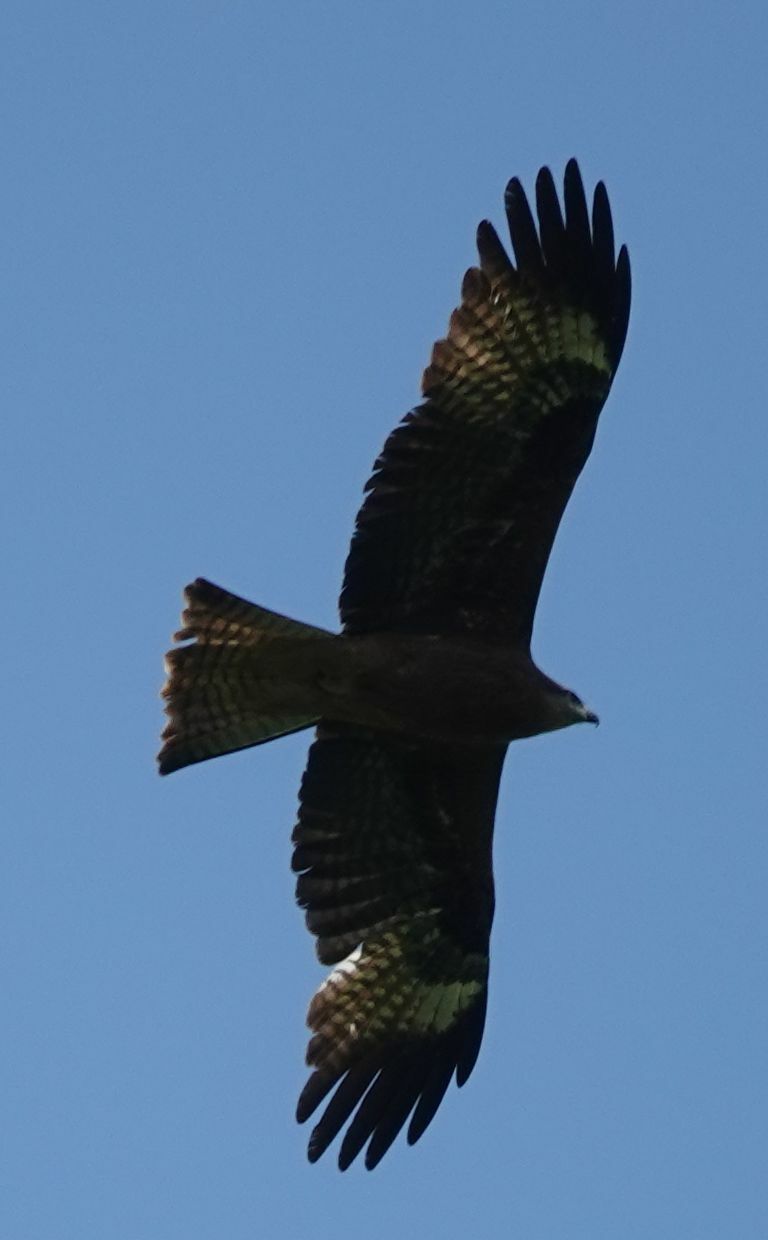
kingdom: Animalia
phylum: Chordata
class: Aves
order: Accipitriformes
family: Accipitridae
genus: Milvus
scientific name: Milvus migrans
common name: Black kite
